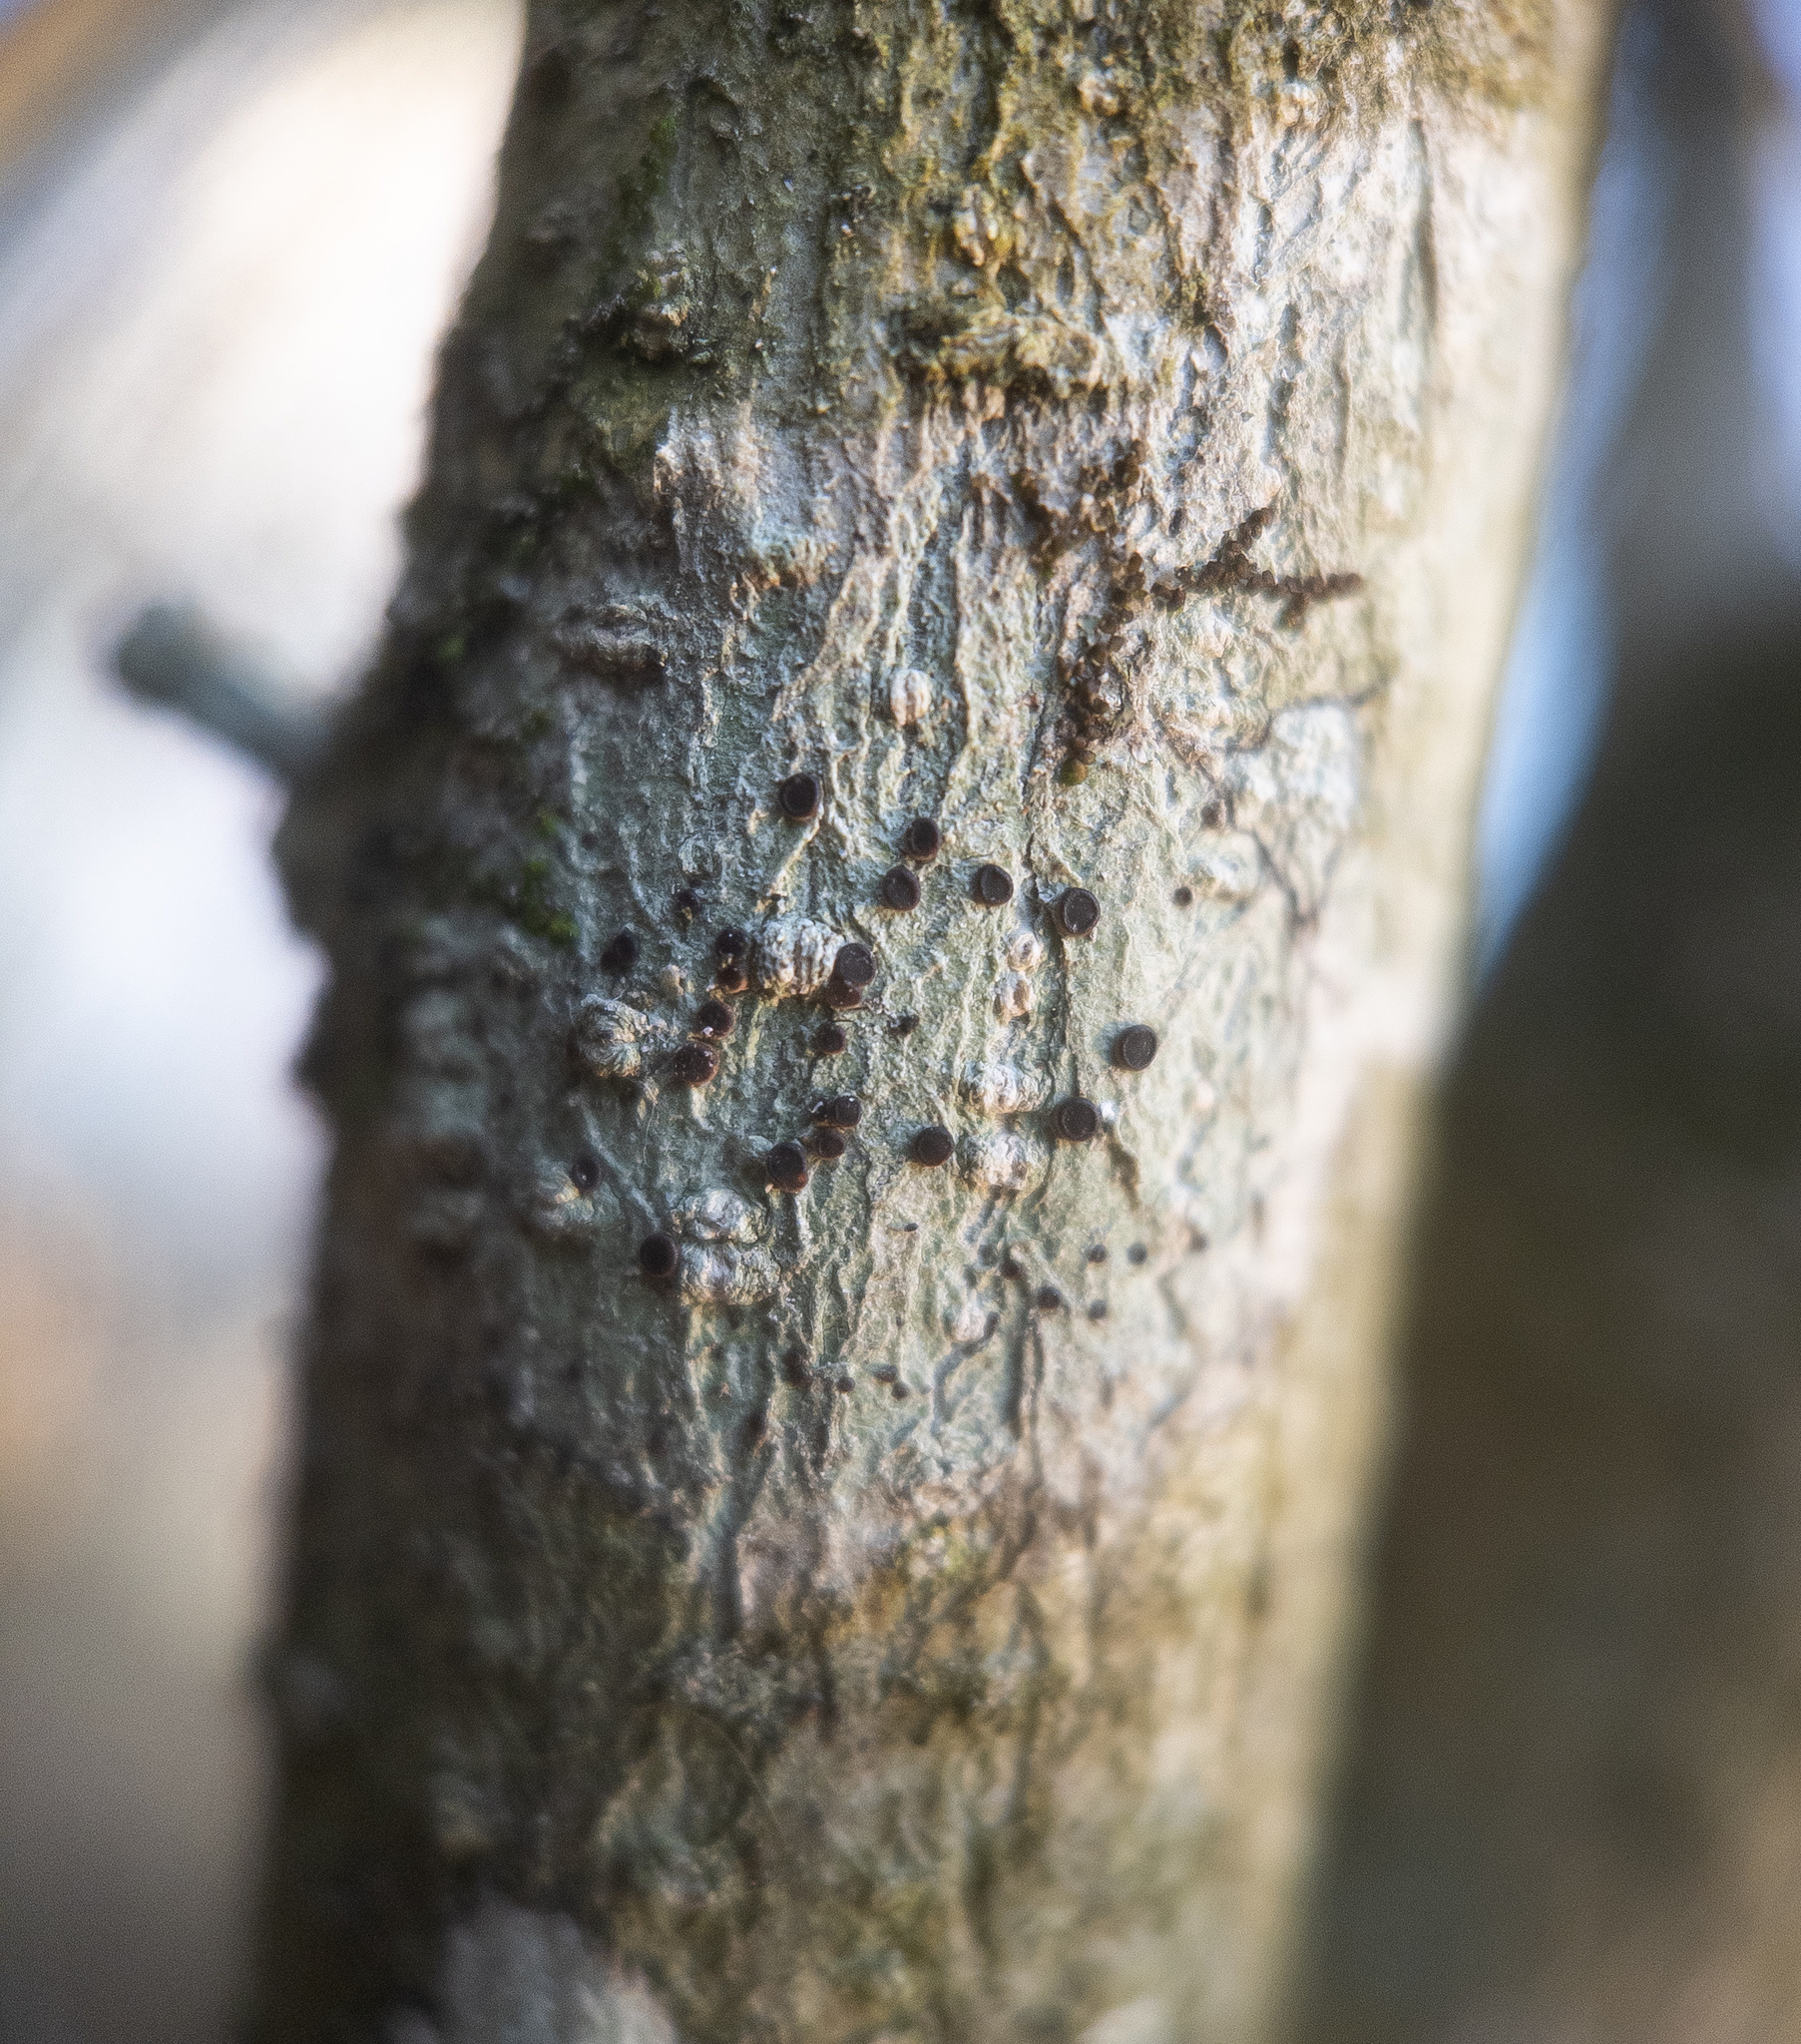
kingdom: Fungi
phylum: Ascomycota
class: Lecanoromycetes
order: Caliciales
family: Caliciaceae
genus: Buellia
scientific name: Buellia erubescens
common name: Common button lichen
